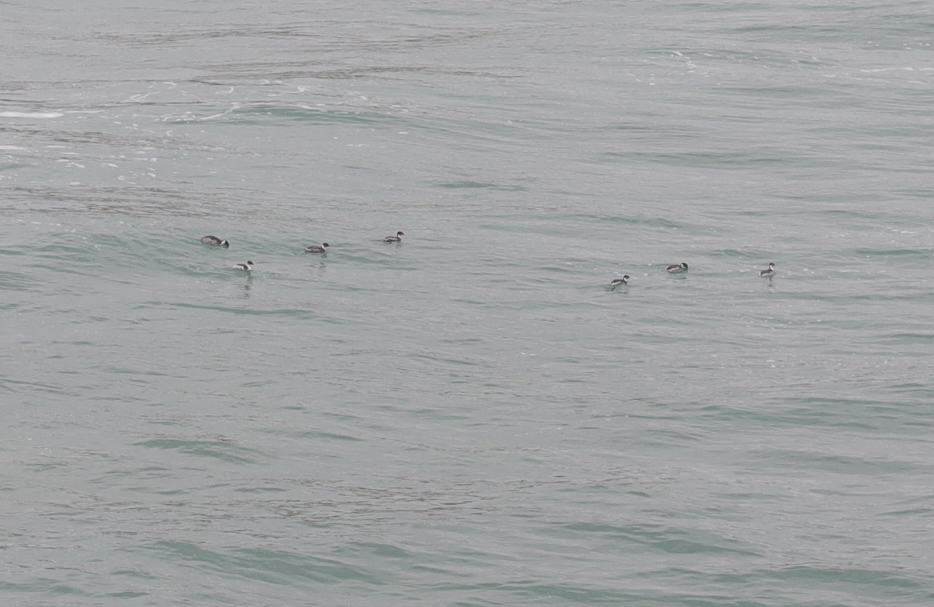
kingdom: Animalia
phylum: Chordata
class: Aves
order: Podicipediformes
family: Podicipedidae
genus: Podiceps
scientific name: Podiceps occipitalis
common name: Silvery grebe
